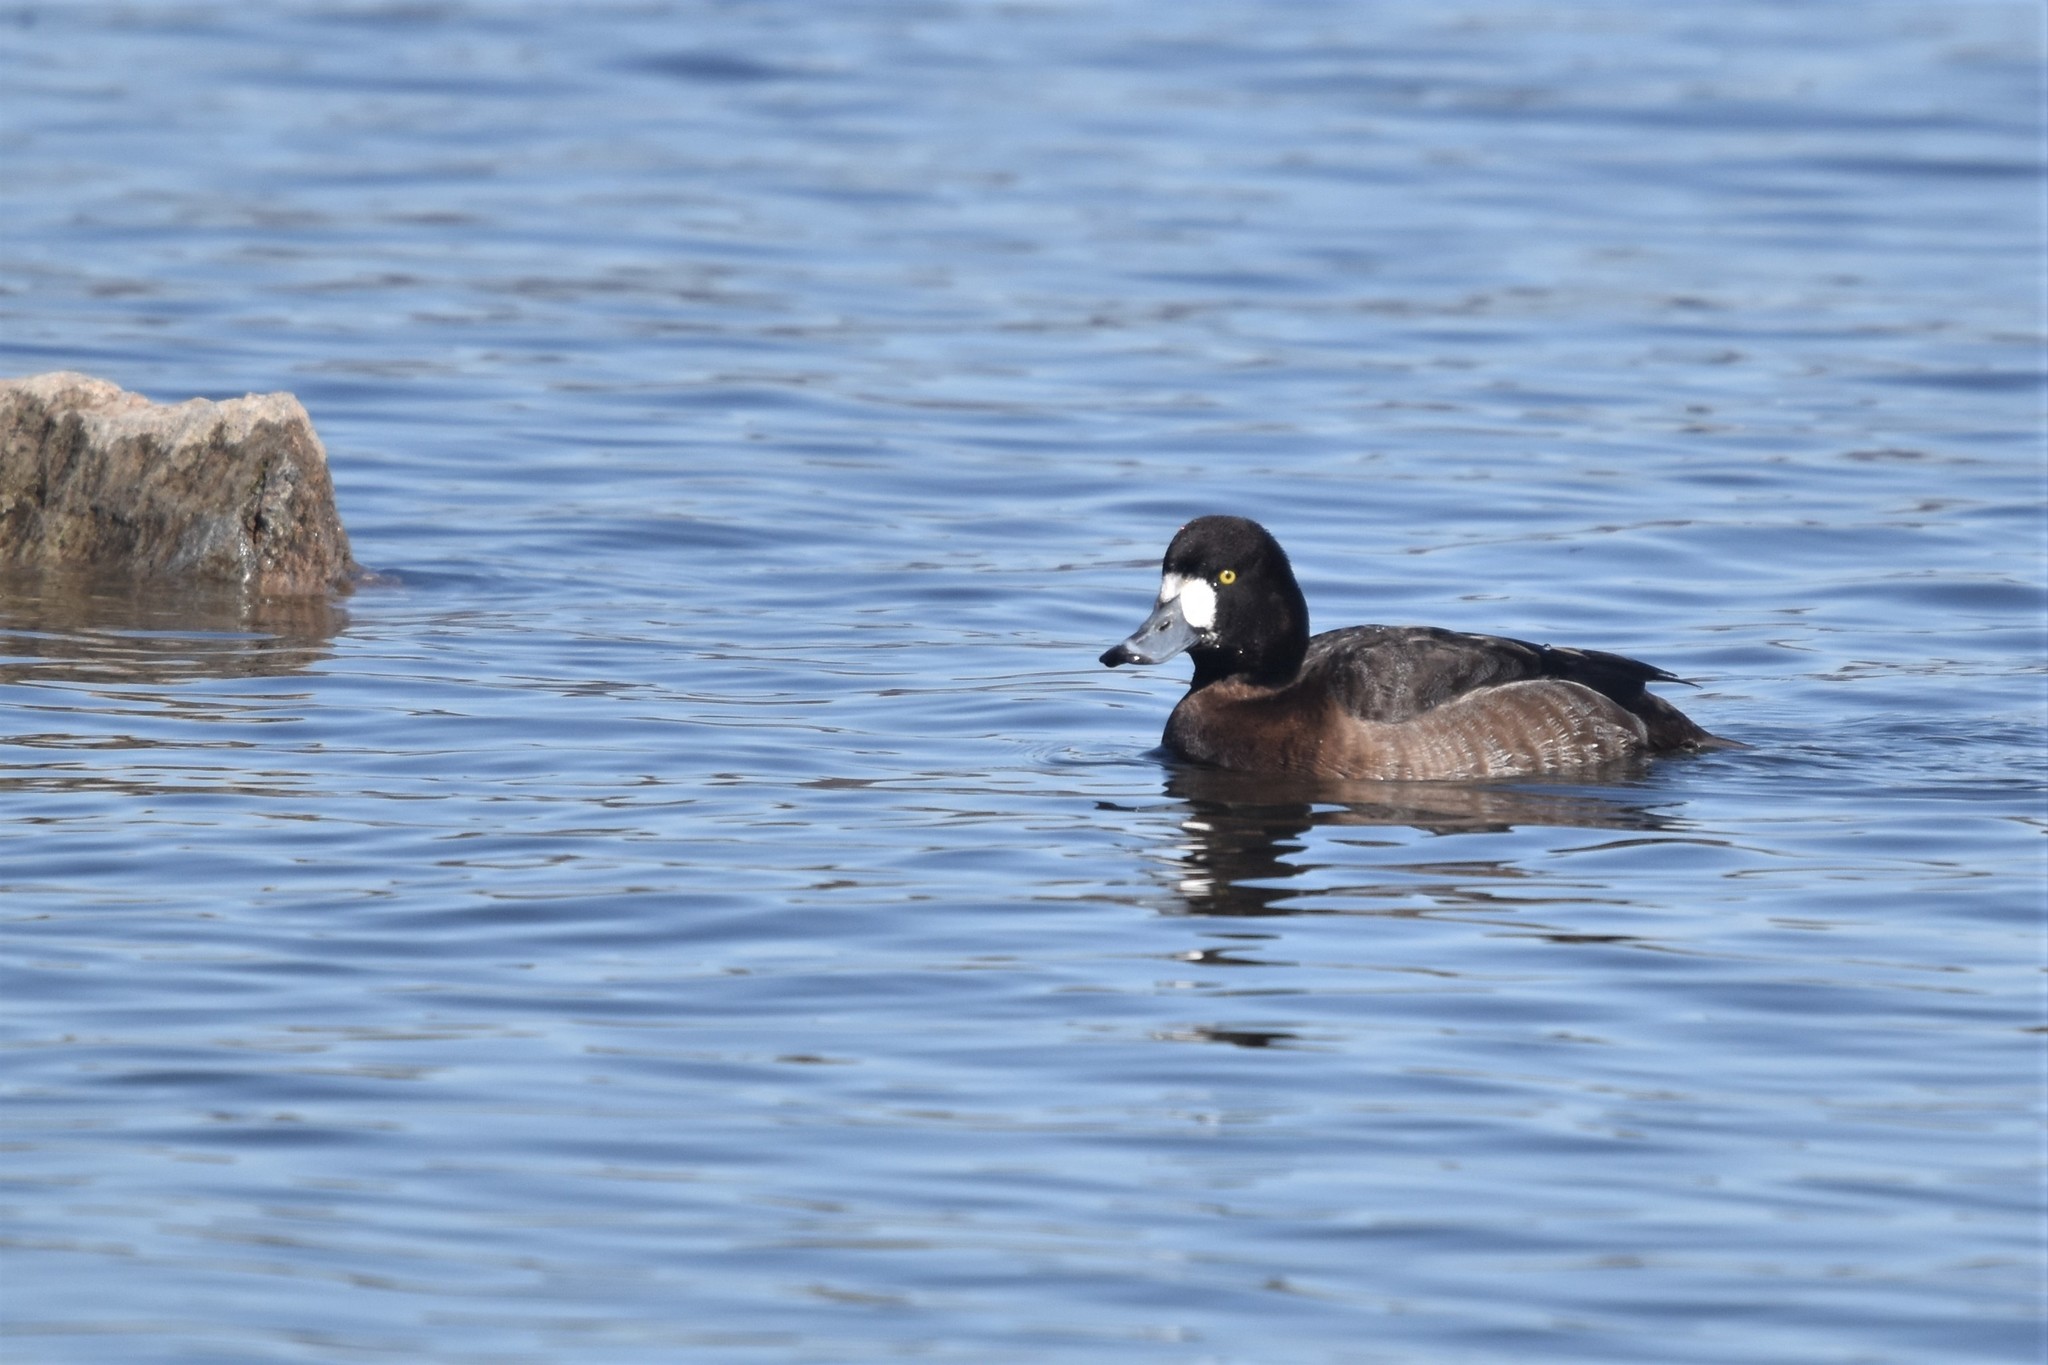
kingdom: Animalia
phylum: Chordata
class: Aves
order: Anseriformes
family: Anatidae
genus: Aythya
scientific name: Aythya marila
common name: Greater scaup
